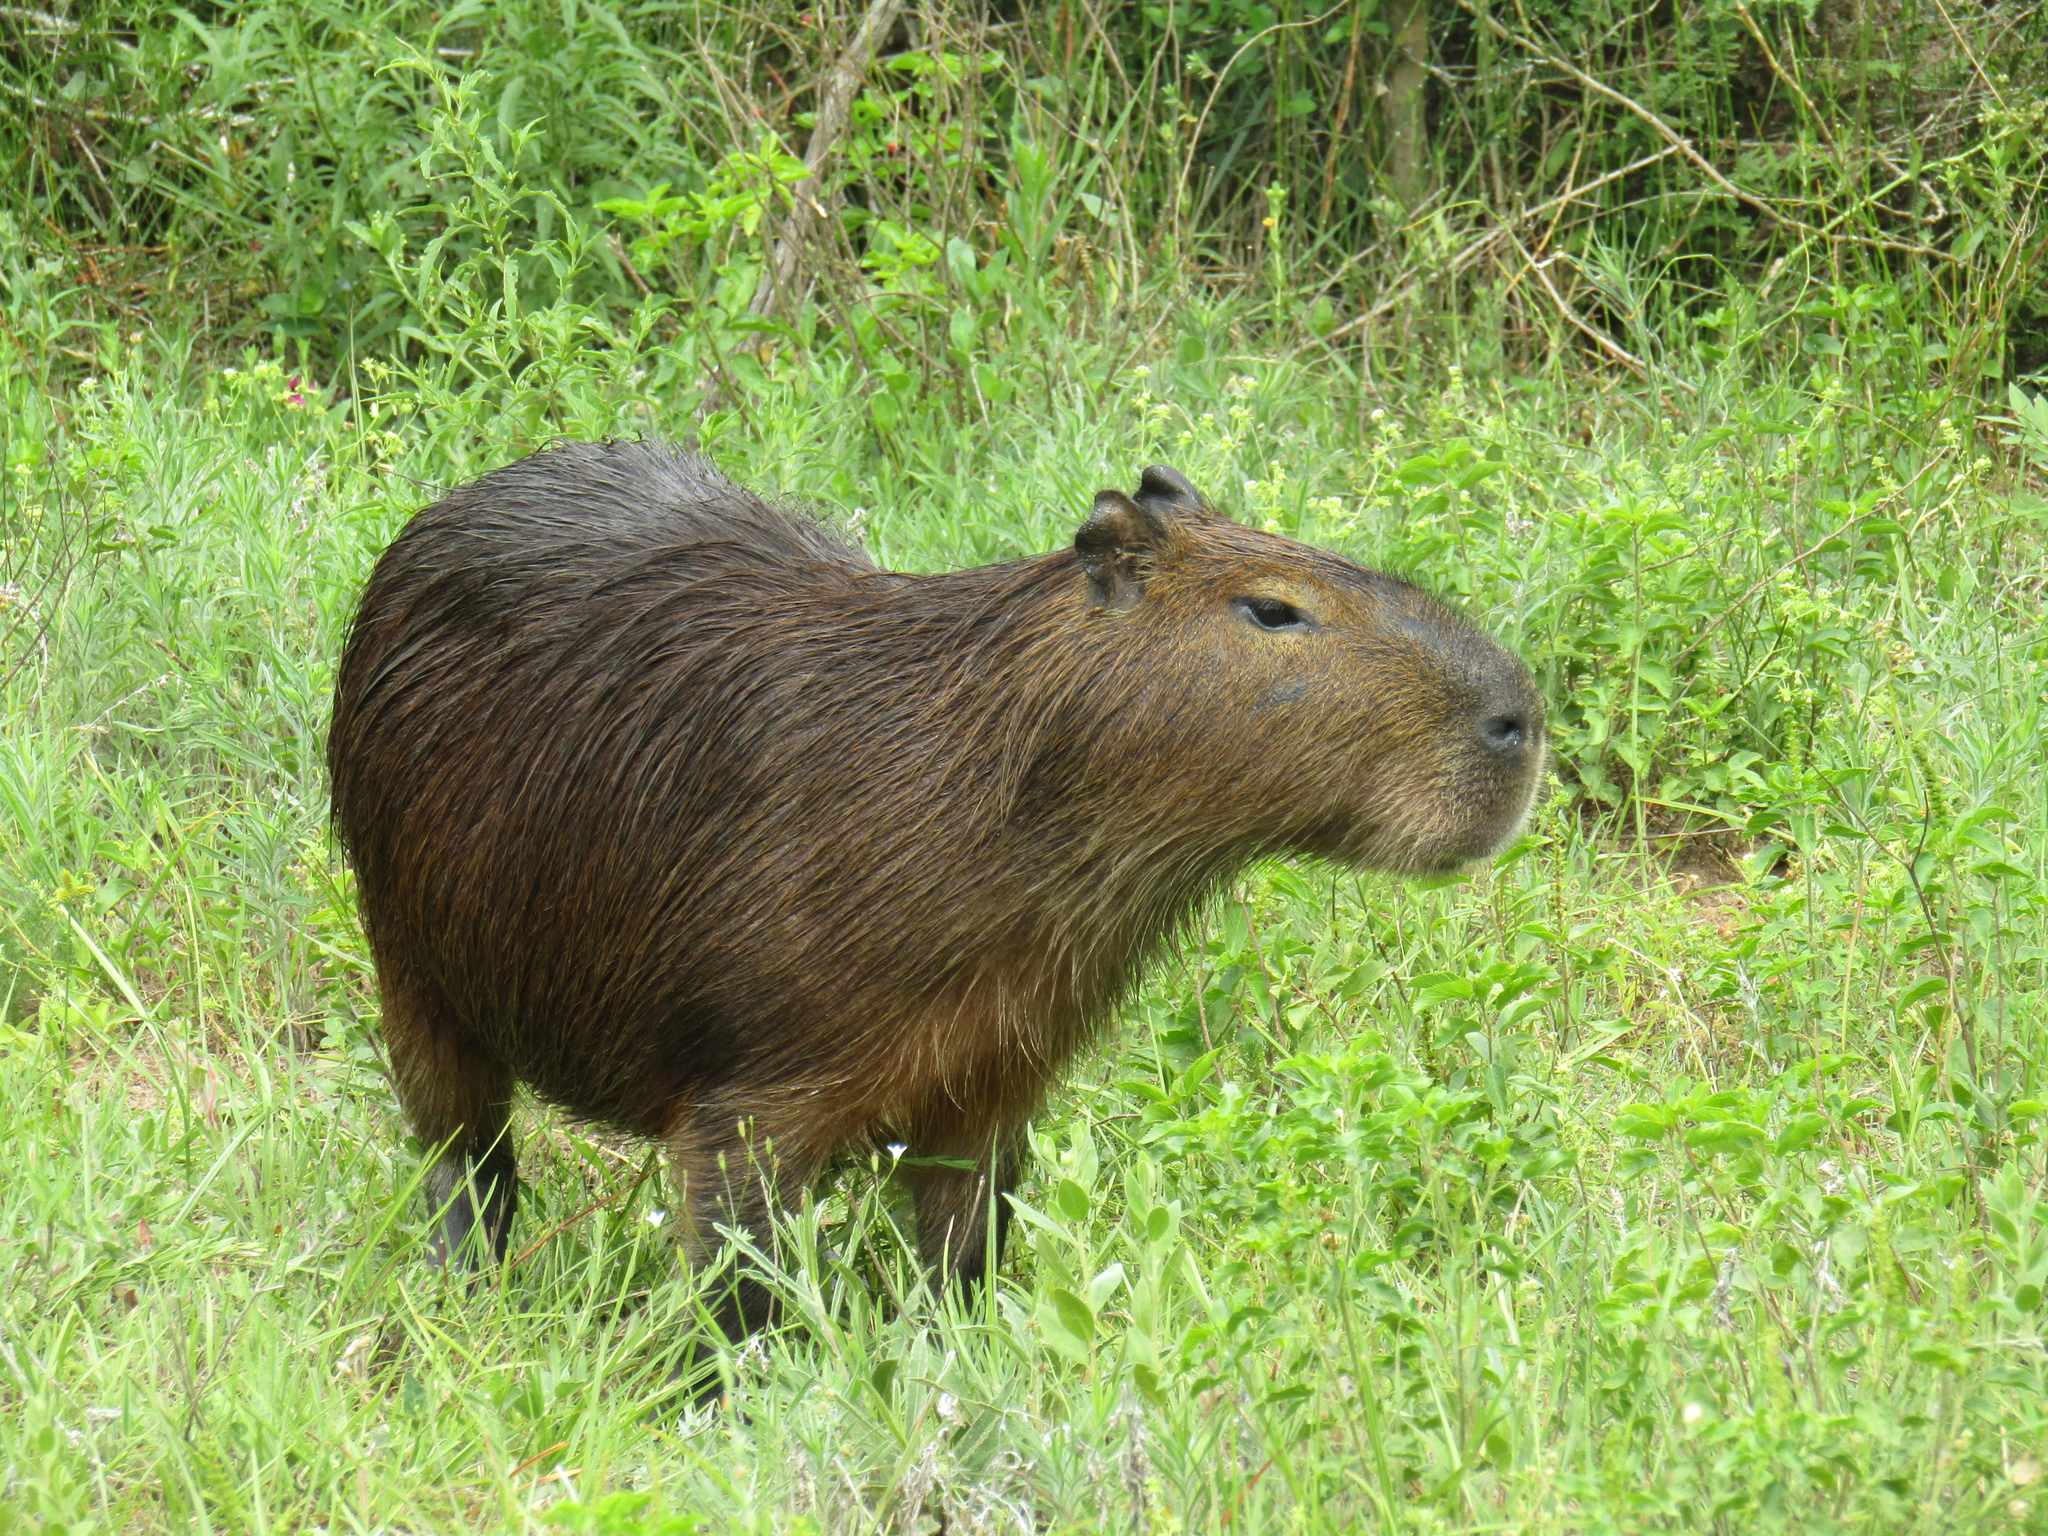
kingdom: Animalia
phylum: Chordata
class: Mammalia
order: Rodentia
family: Caviidae
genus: Hydrochoerus
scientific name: Hydrochoerus hydrochaeris
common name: Capybara
